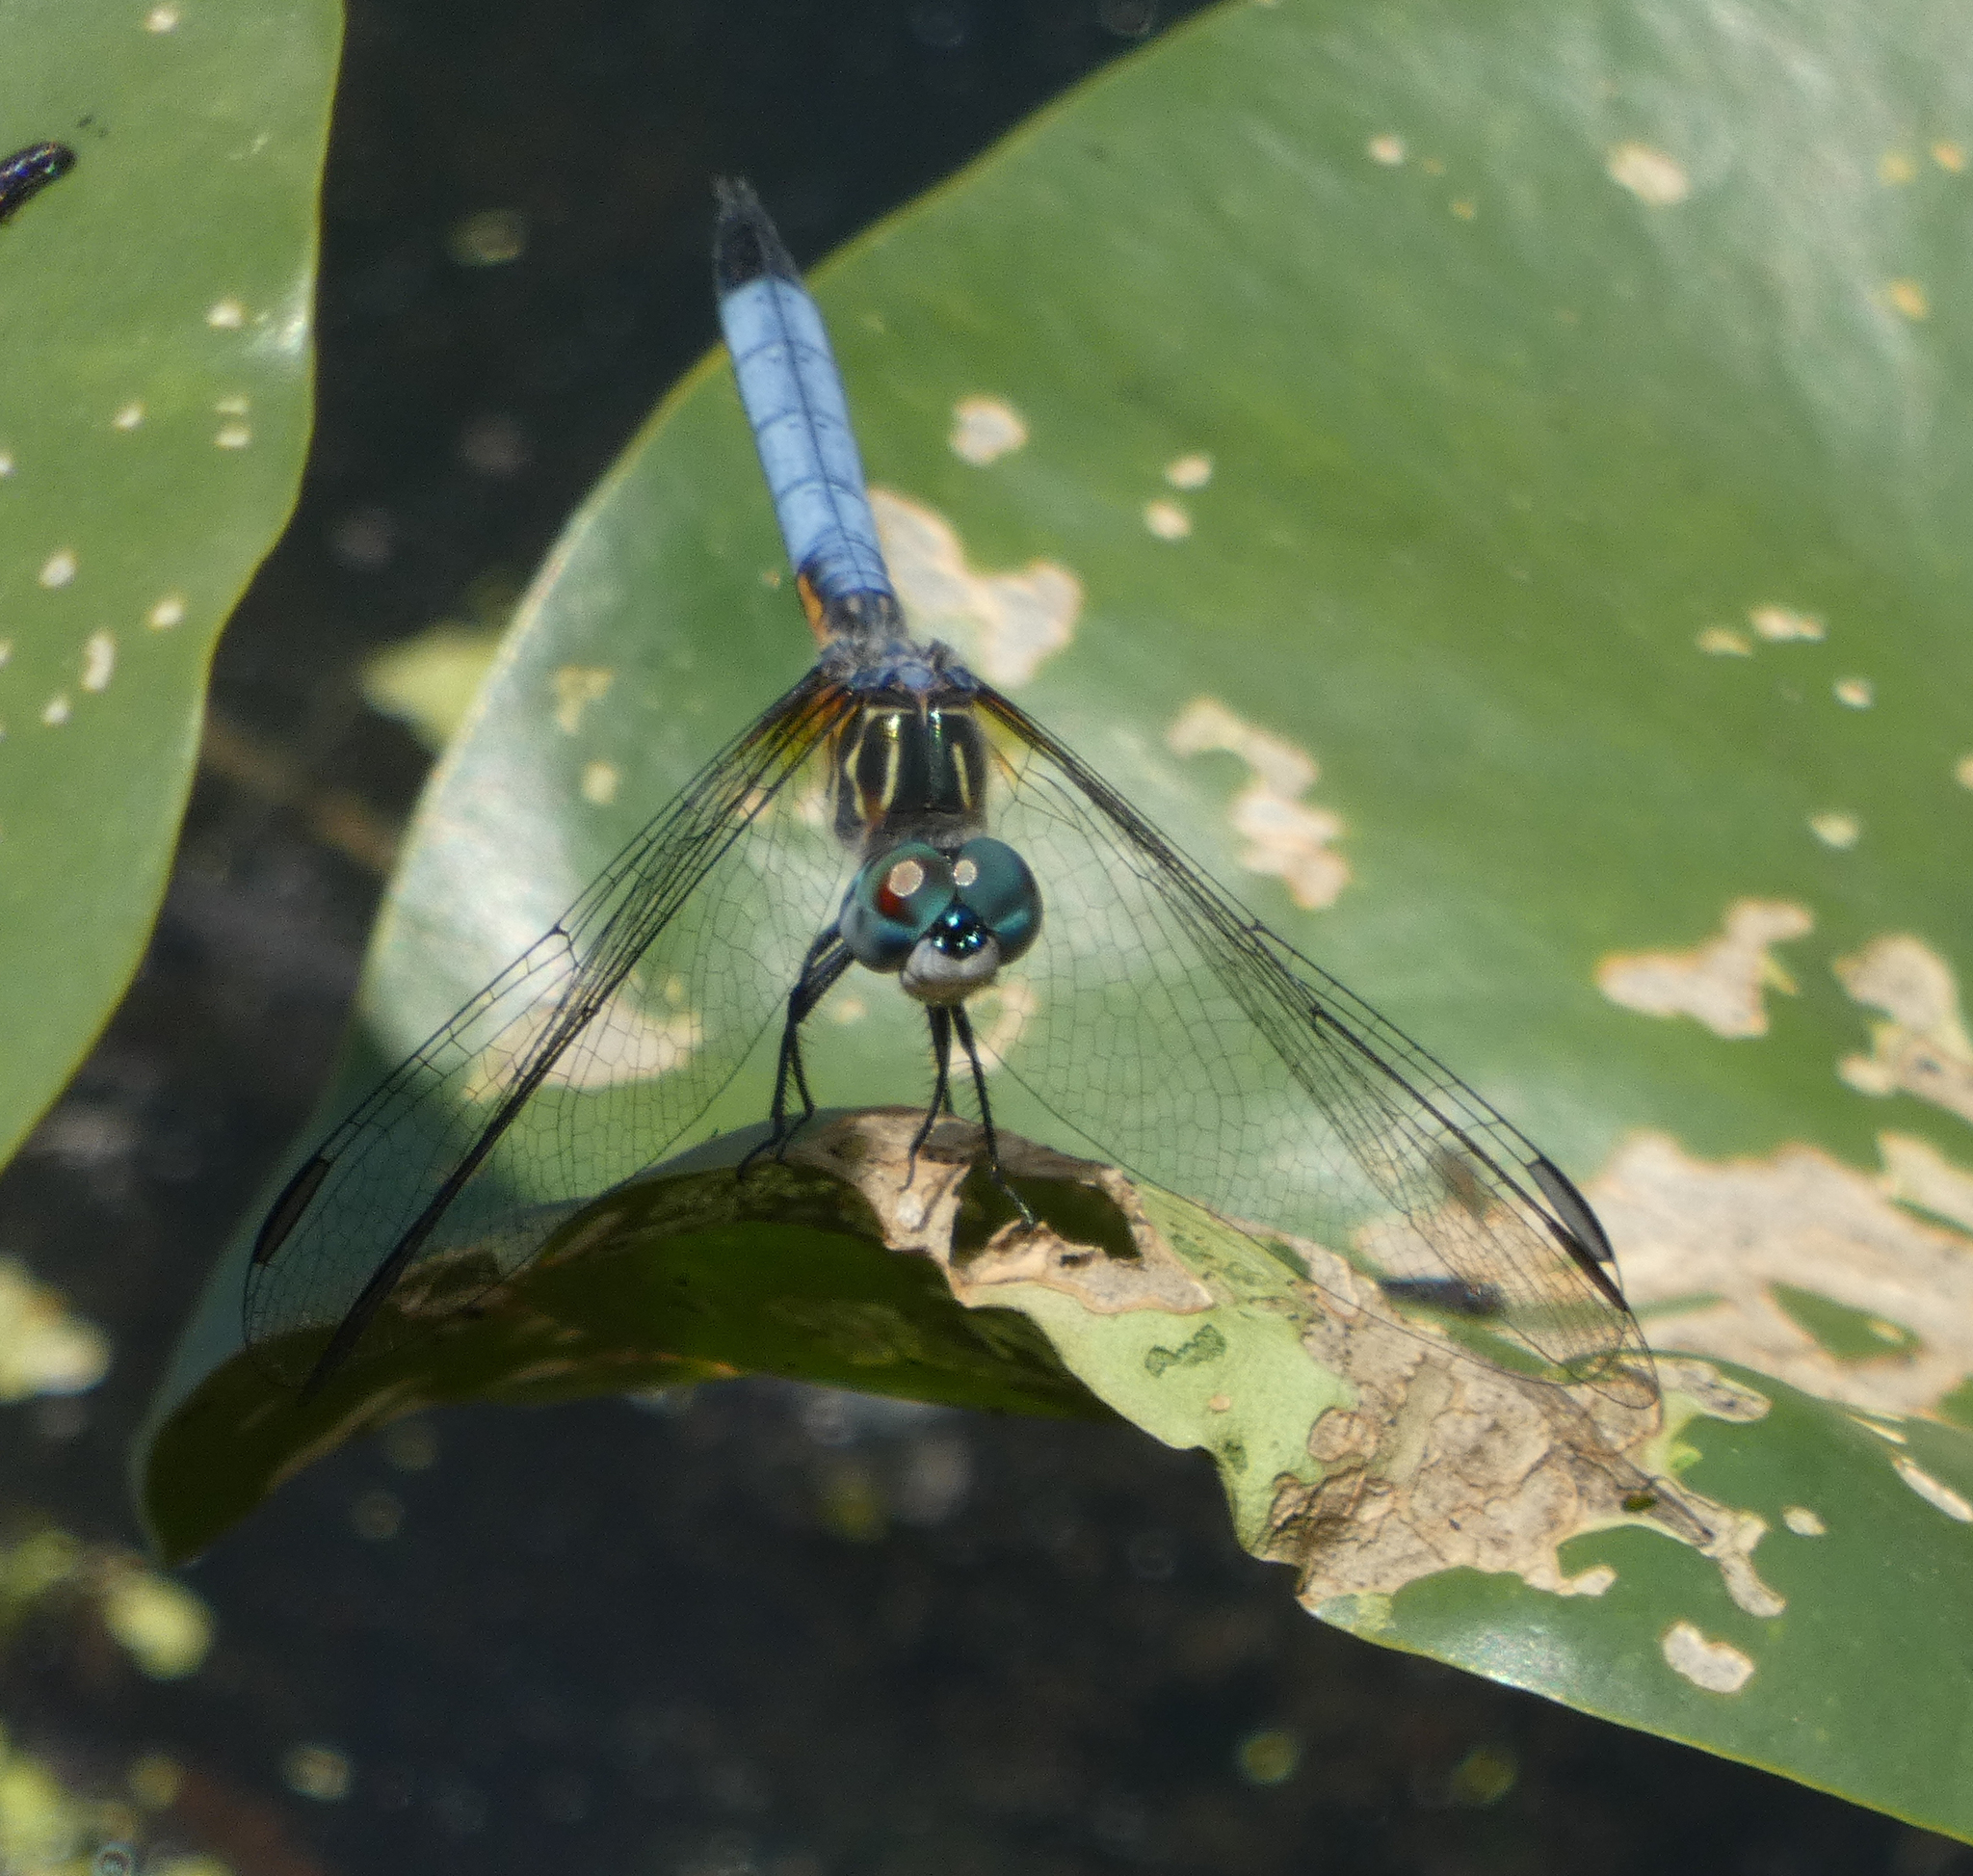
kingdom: Animalia
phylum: Arthropoda
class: Insecta
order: Odonata
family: Libellulidae
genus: Pachydiplax
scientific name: Pachydiplax longipennis
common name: Blue dasher
